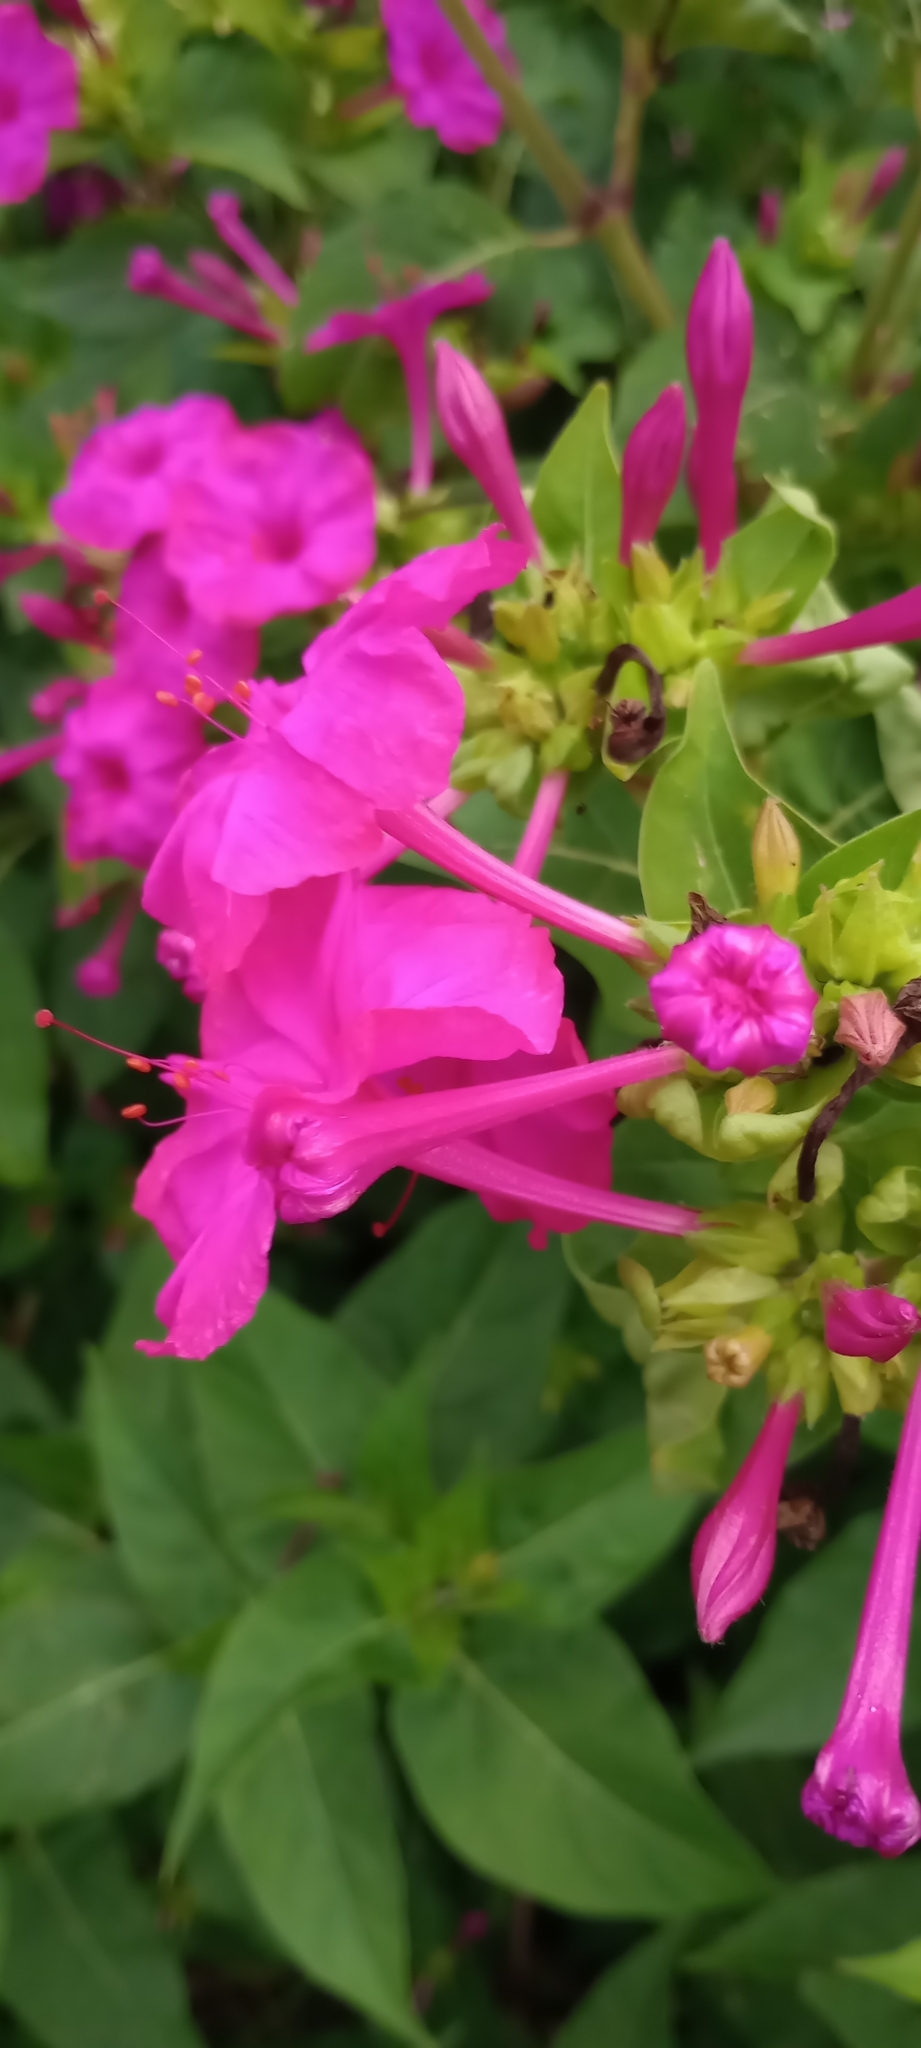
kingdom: Plantae
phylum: Tracheophyta
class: Magnoliopsida
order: Caryophyllales
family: Nyctaginaceae
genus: Mirabilis
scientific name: Mirabilis jalapa
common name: Marvel-of-peru
